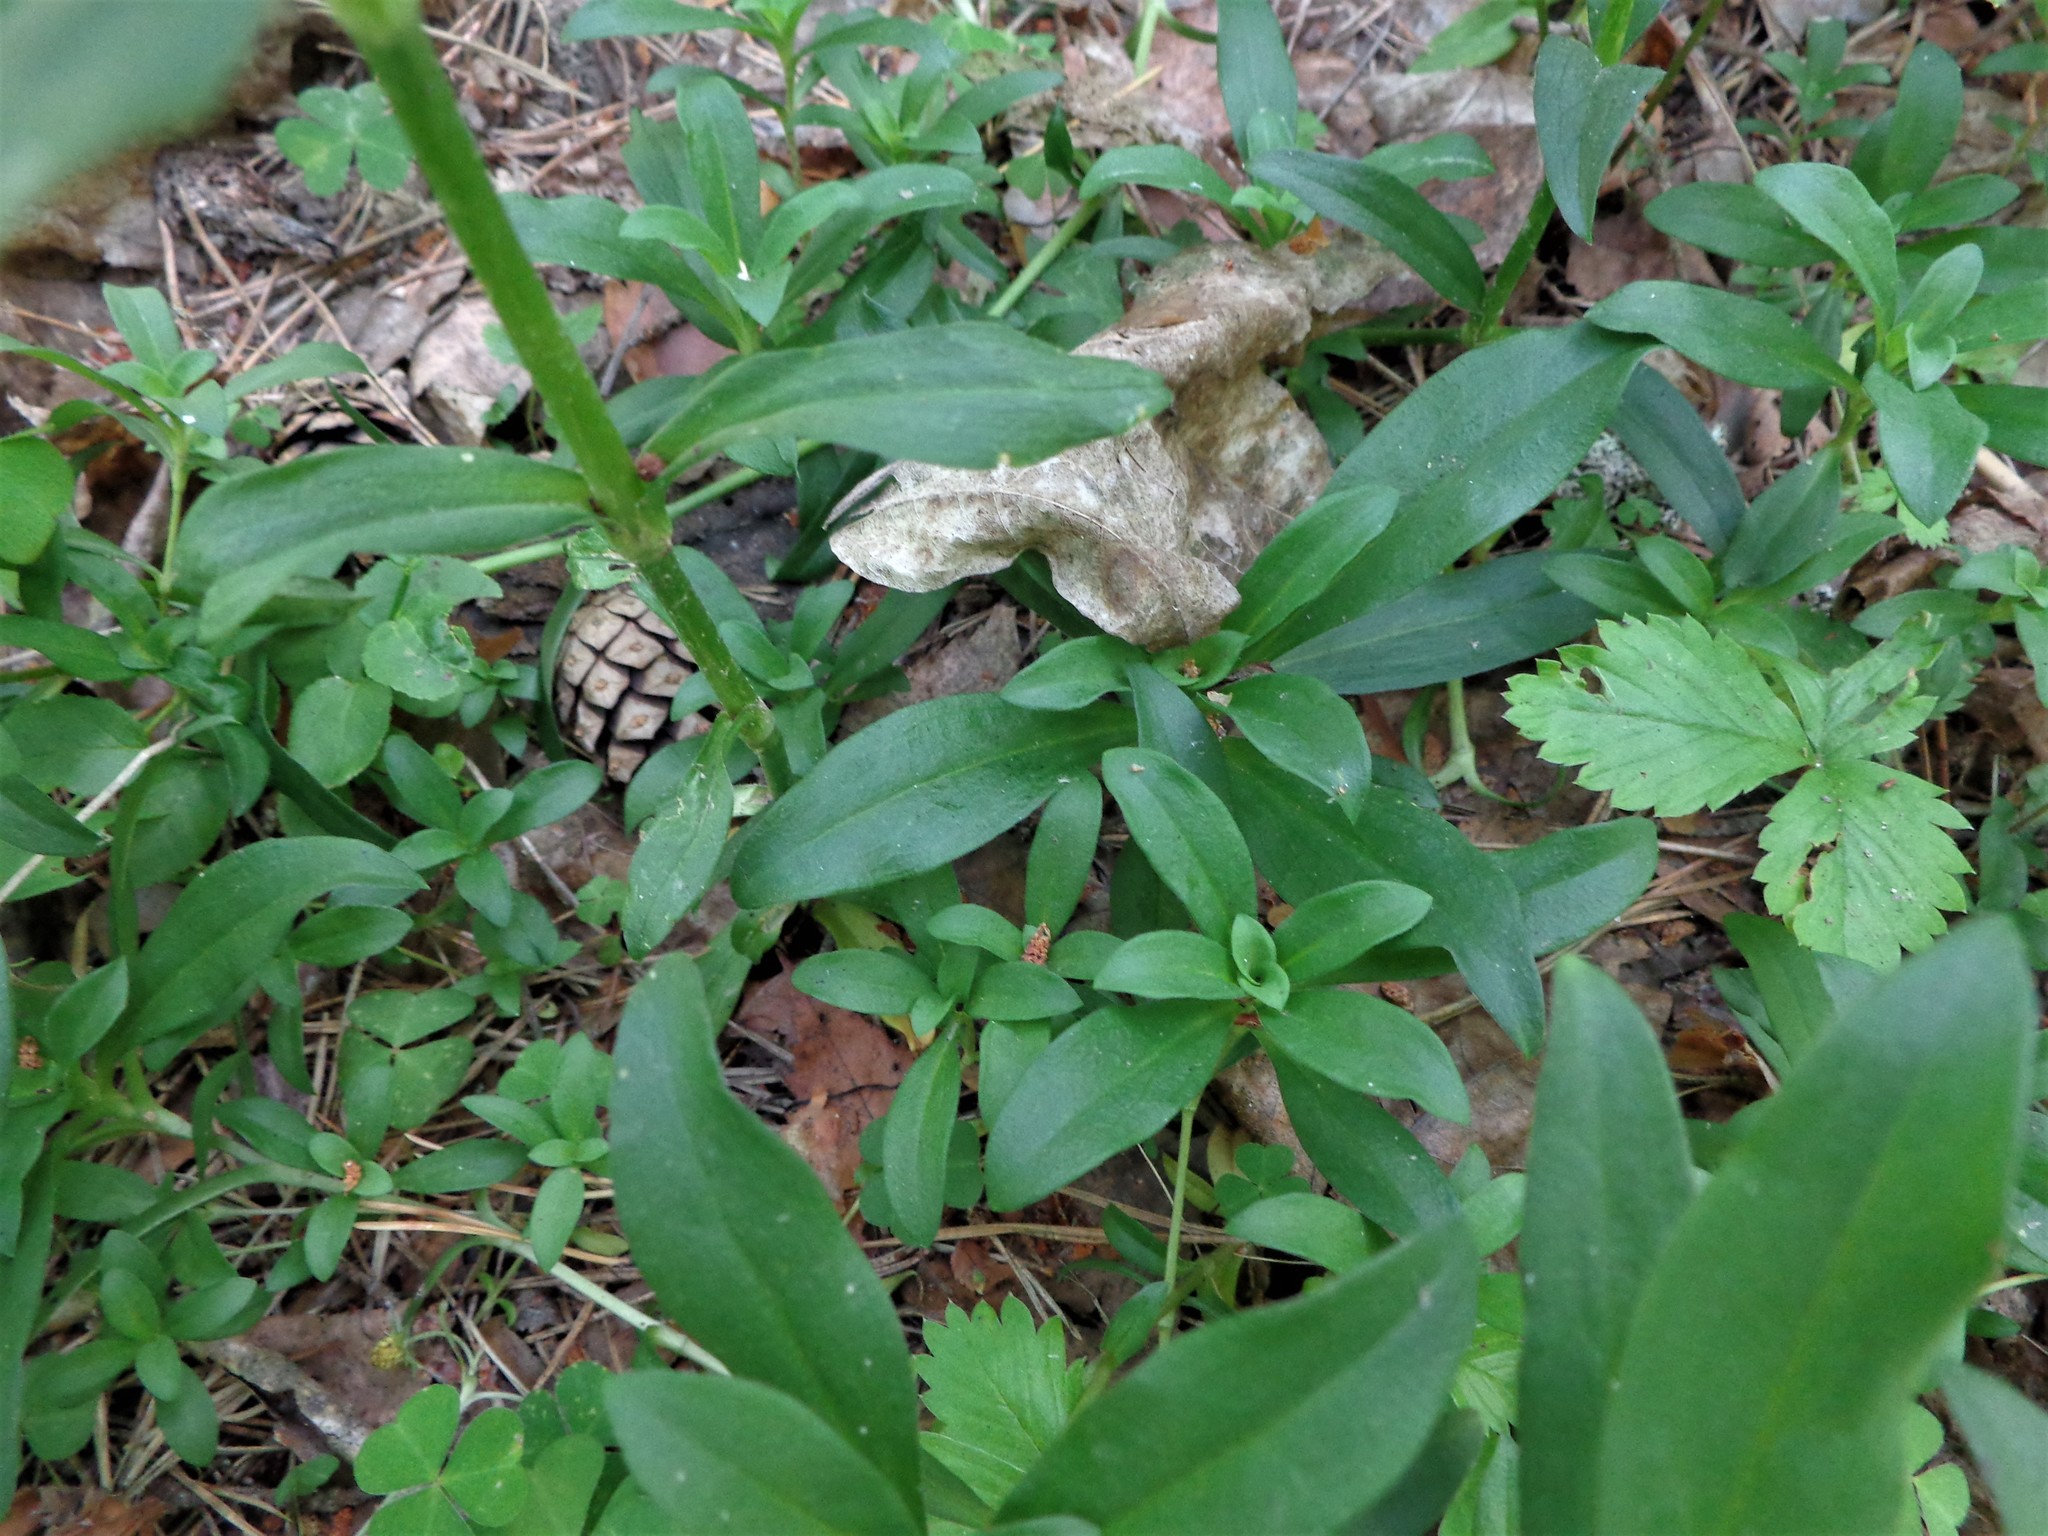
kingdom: Plantae
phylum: Tracheophyta
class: Magnoliopsida
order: Caryophyllales
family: Caryophyllaceae
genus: Dianthus
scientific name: Dianthus barbatus
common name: Sweet-william
